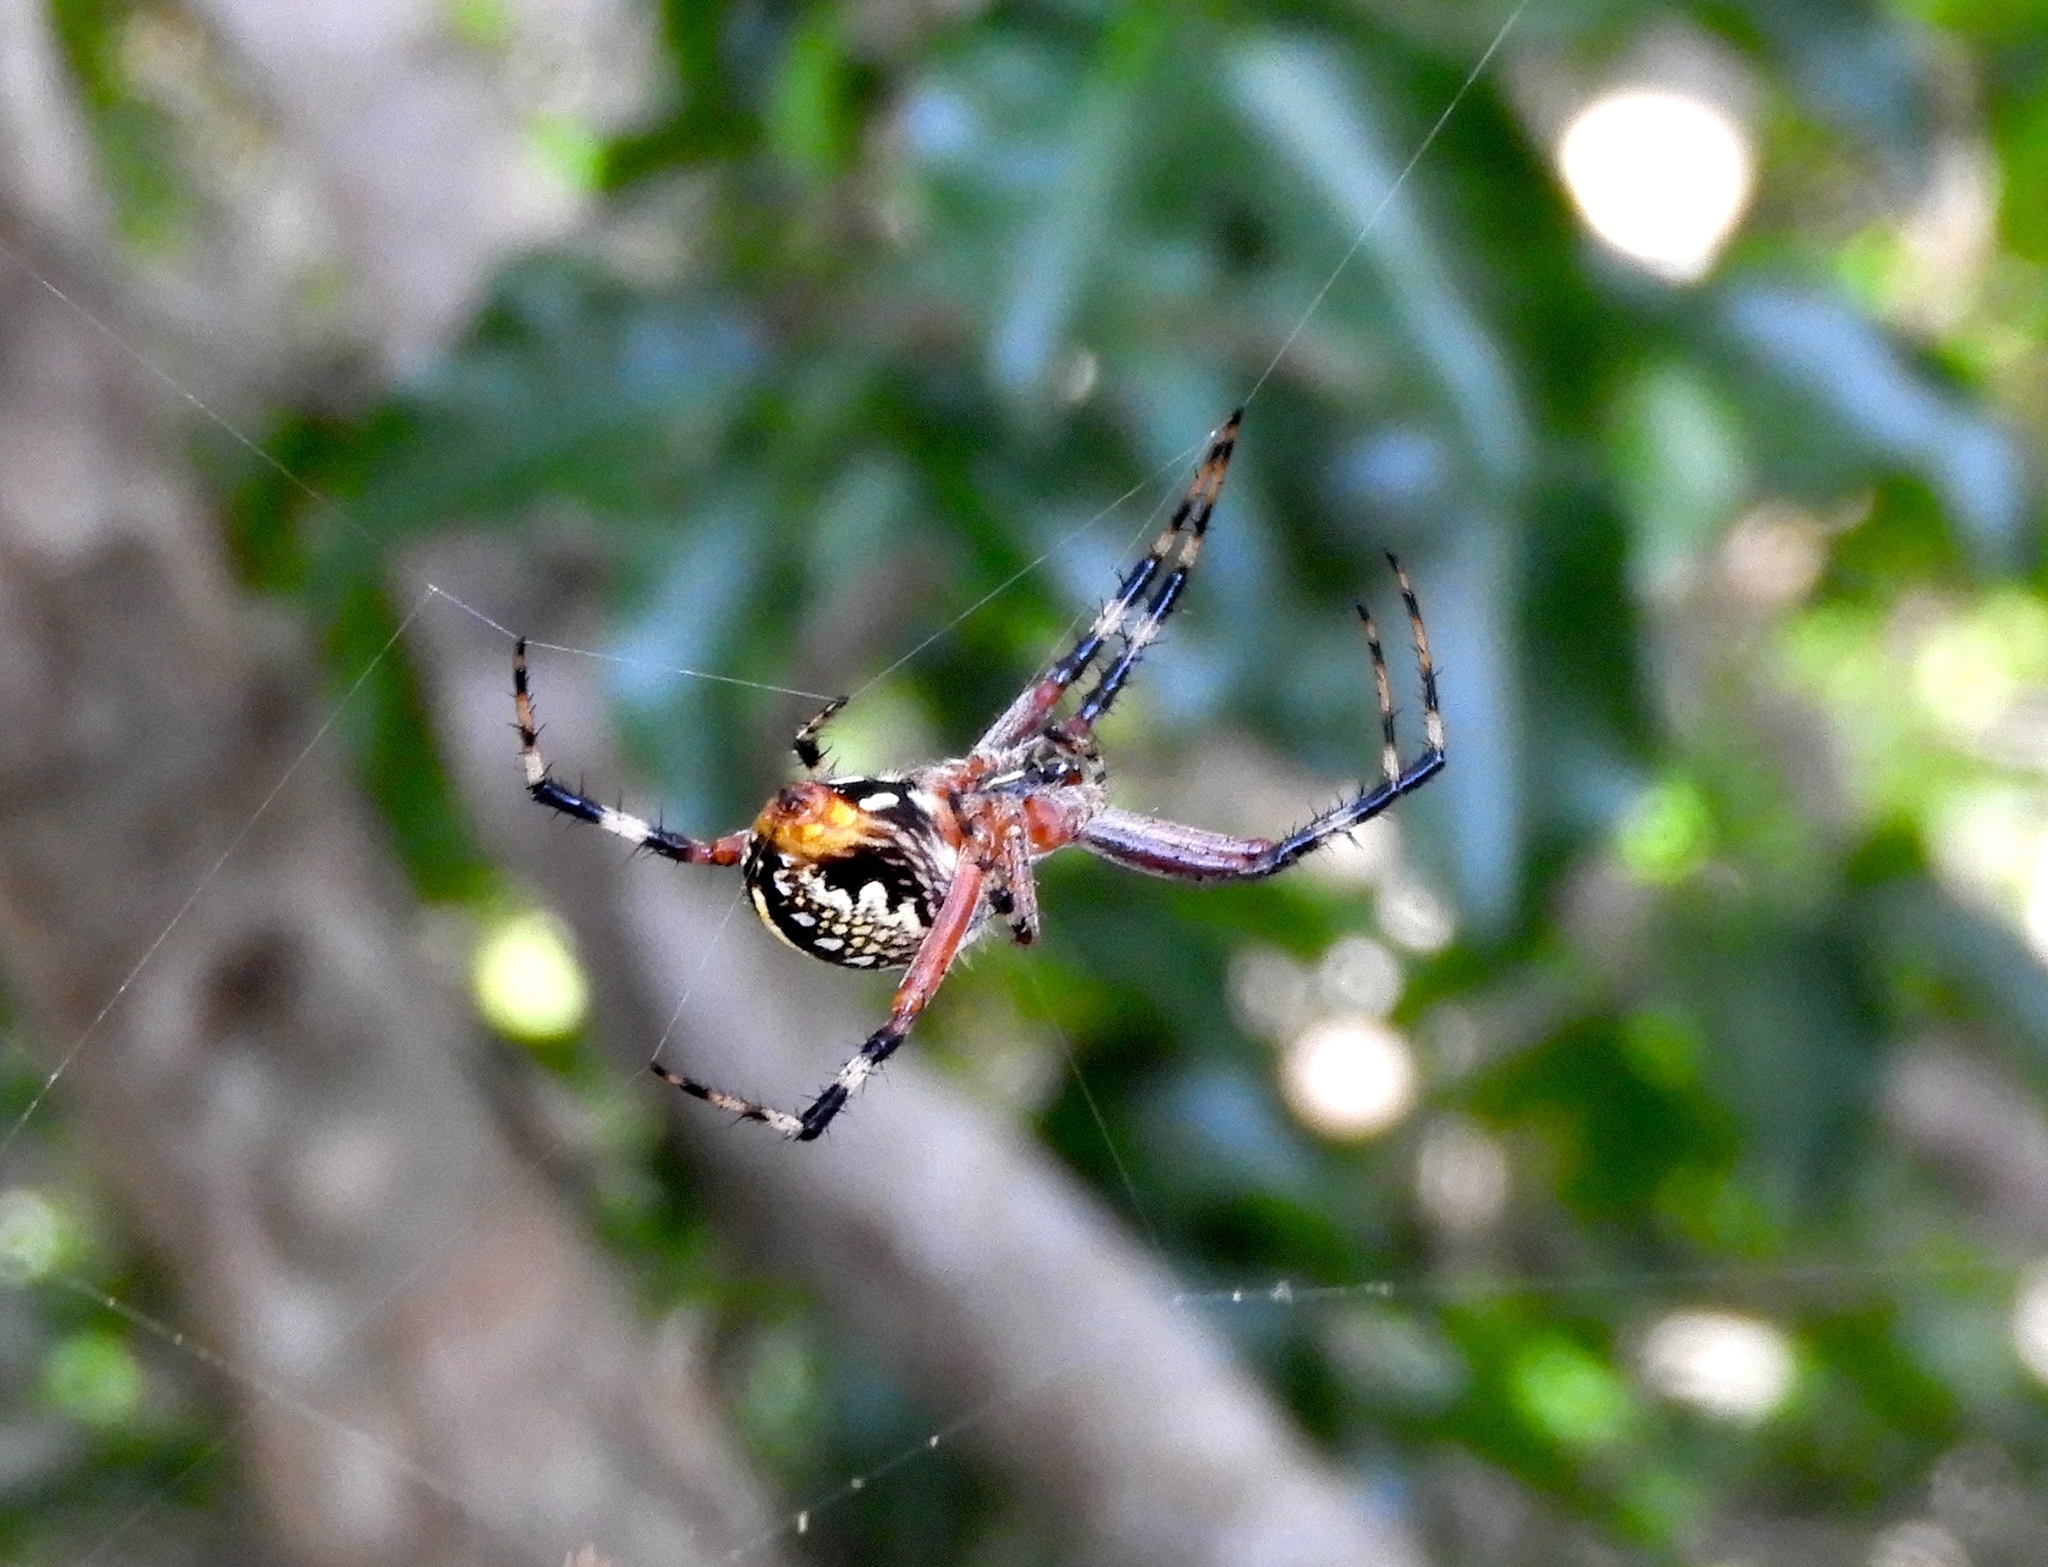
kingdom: Animalia
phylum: Arthropoda
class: Arachnida
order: Araneae
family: Araneidae
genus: Neoscona
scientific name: Neoscona oaxacensis
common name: Orb weavers
